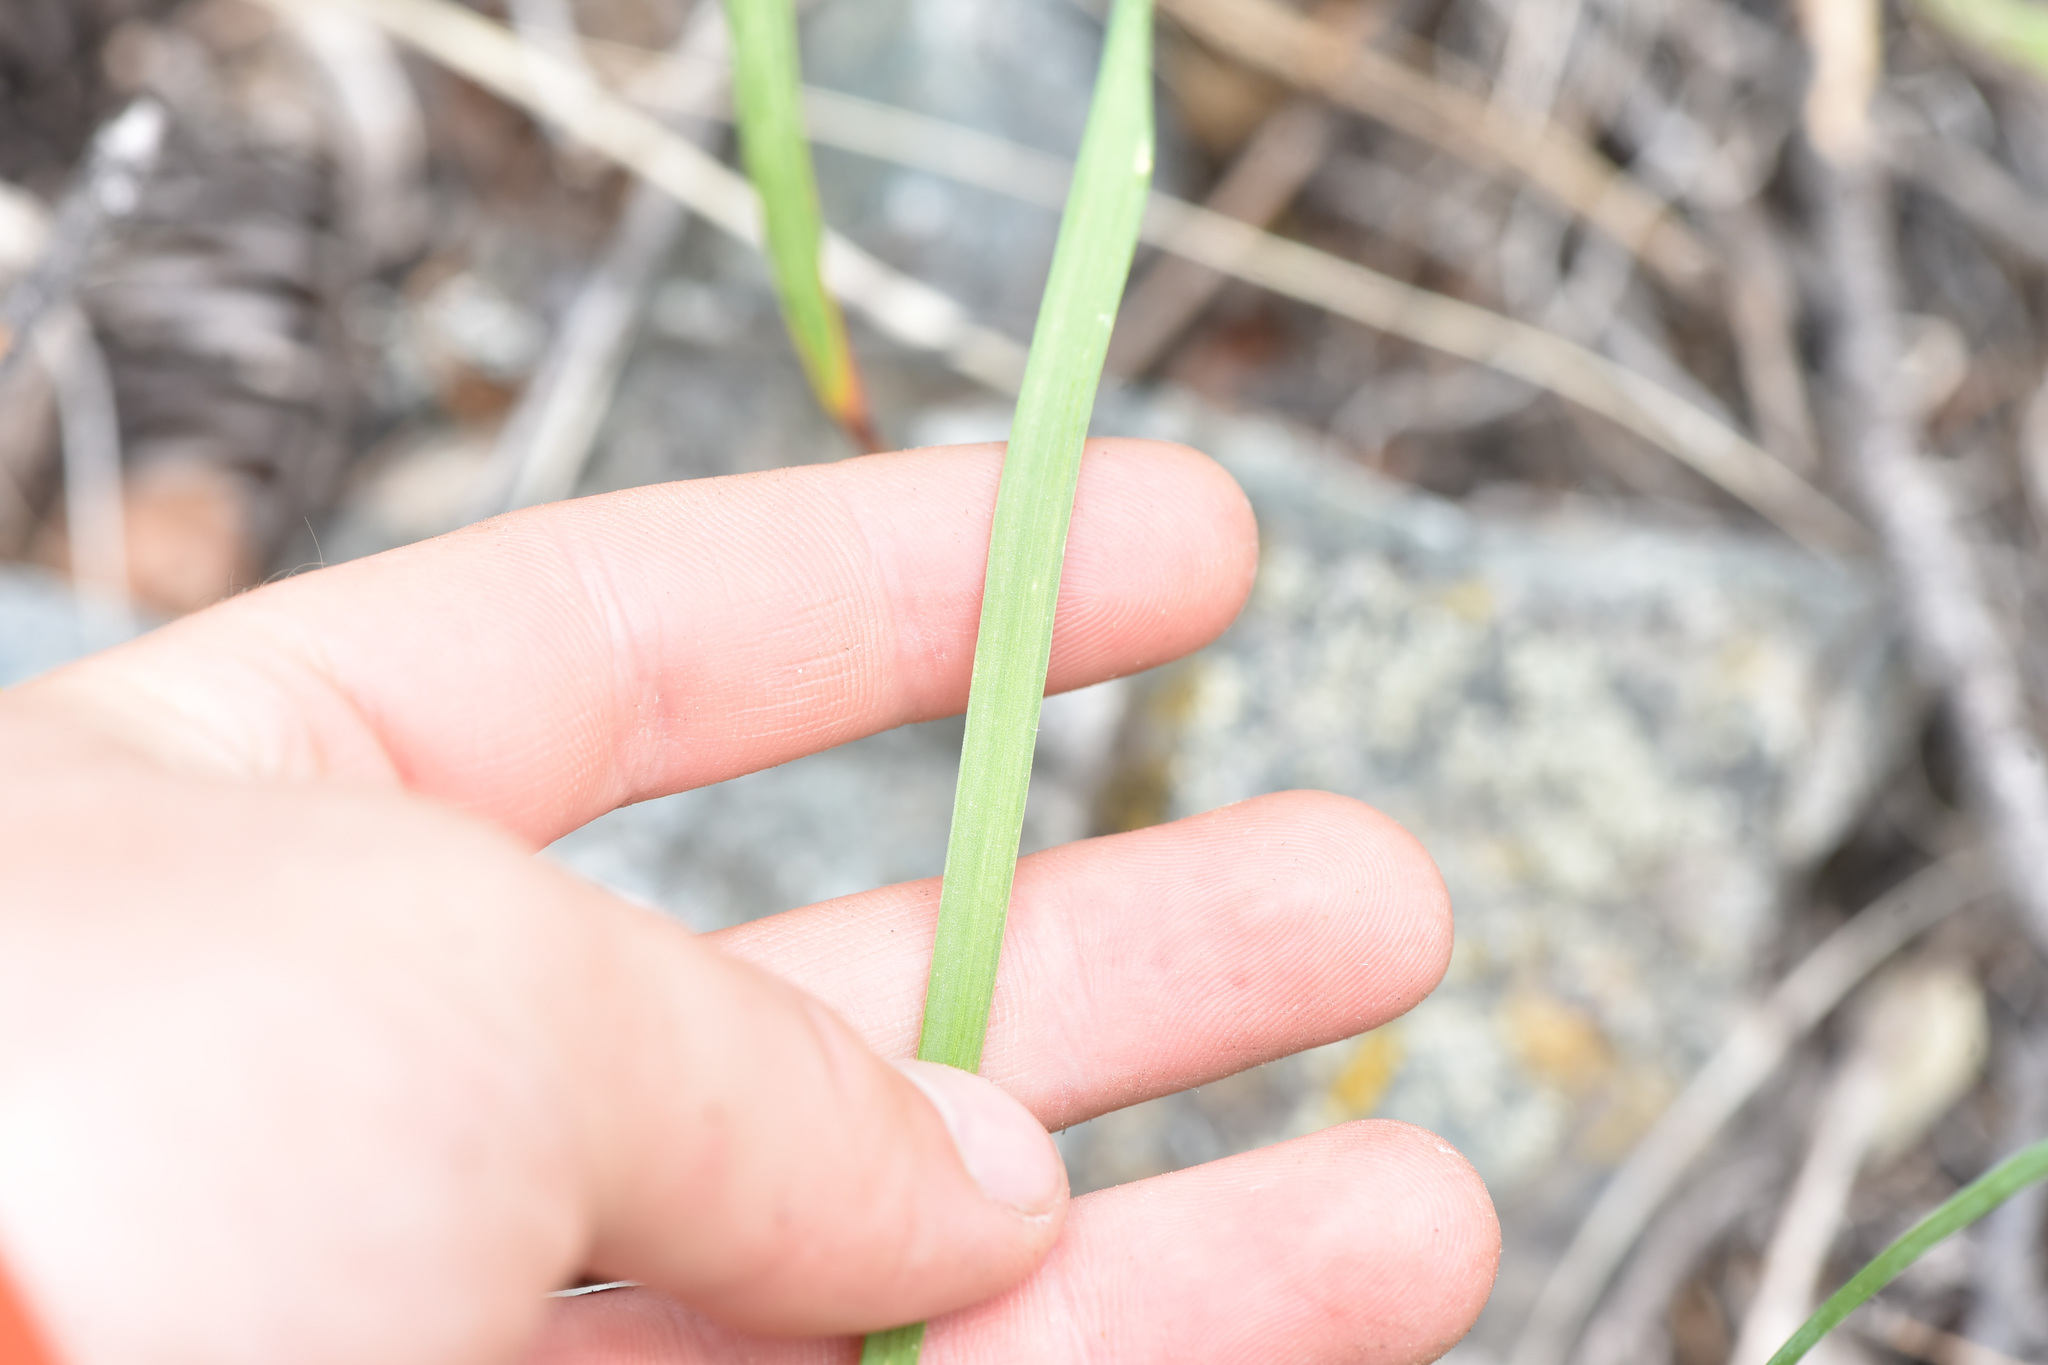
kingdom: Plantae
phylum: Tracheophyta
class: Liliopsida
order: Asparagales
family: Amaryllidaceae
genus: Allium
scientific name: Allium cernuum
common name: Nodding onion
